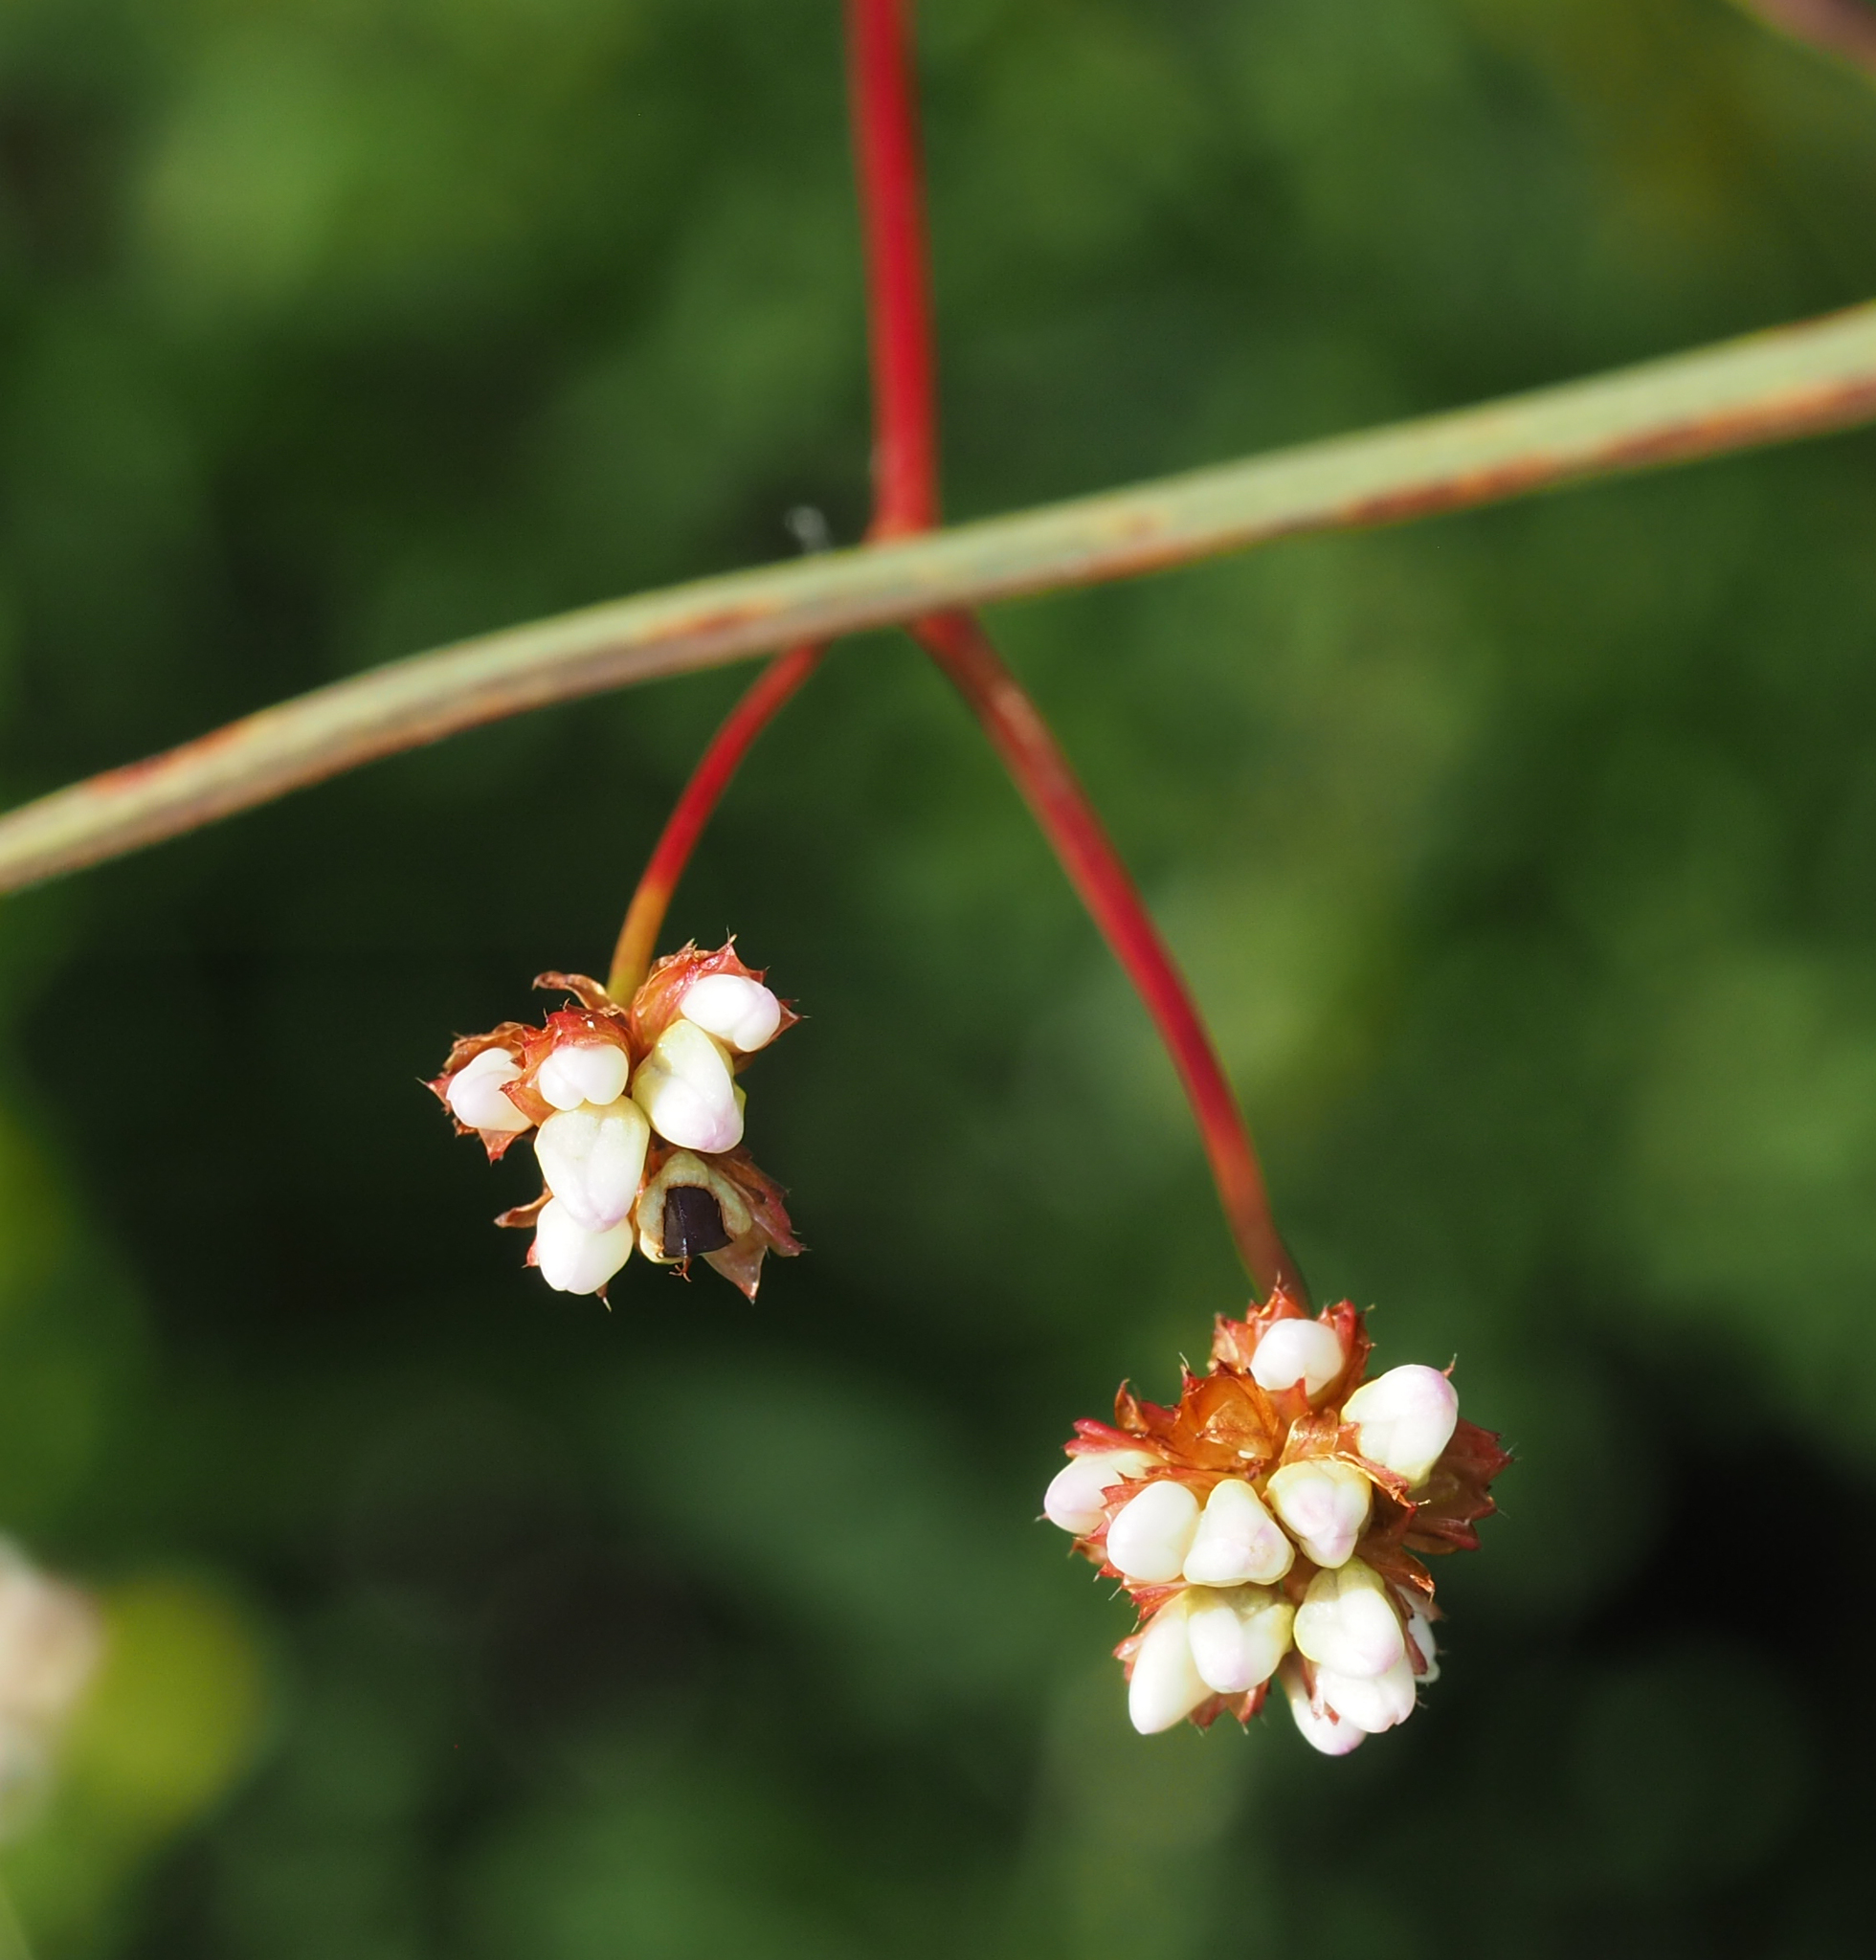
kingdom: Plantae
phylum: Tracheophyta
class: Magnoliopsida
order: Caryophyllales
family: Polygonaceae
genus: Persicaria
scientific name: Persicaria sagittata
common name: American tearthumb
